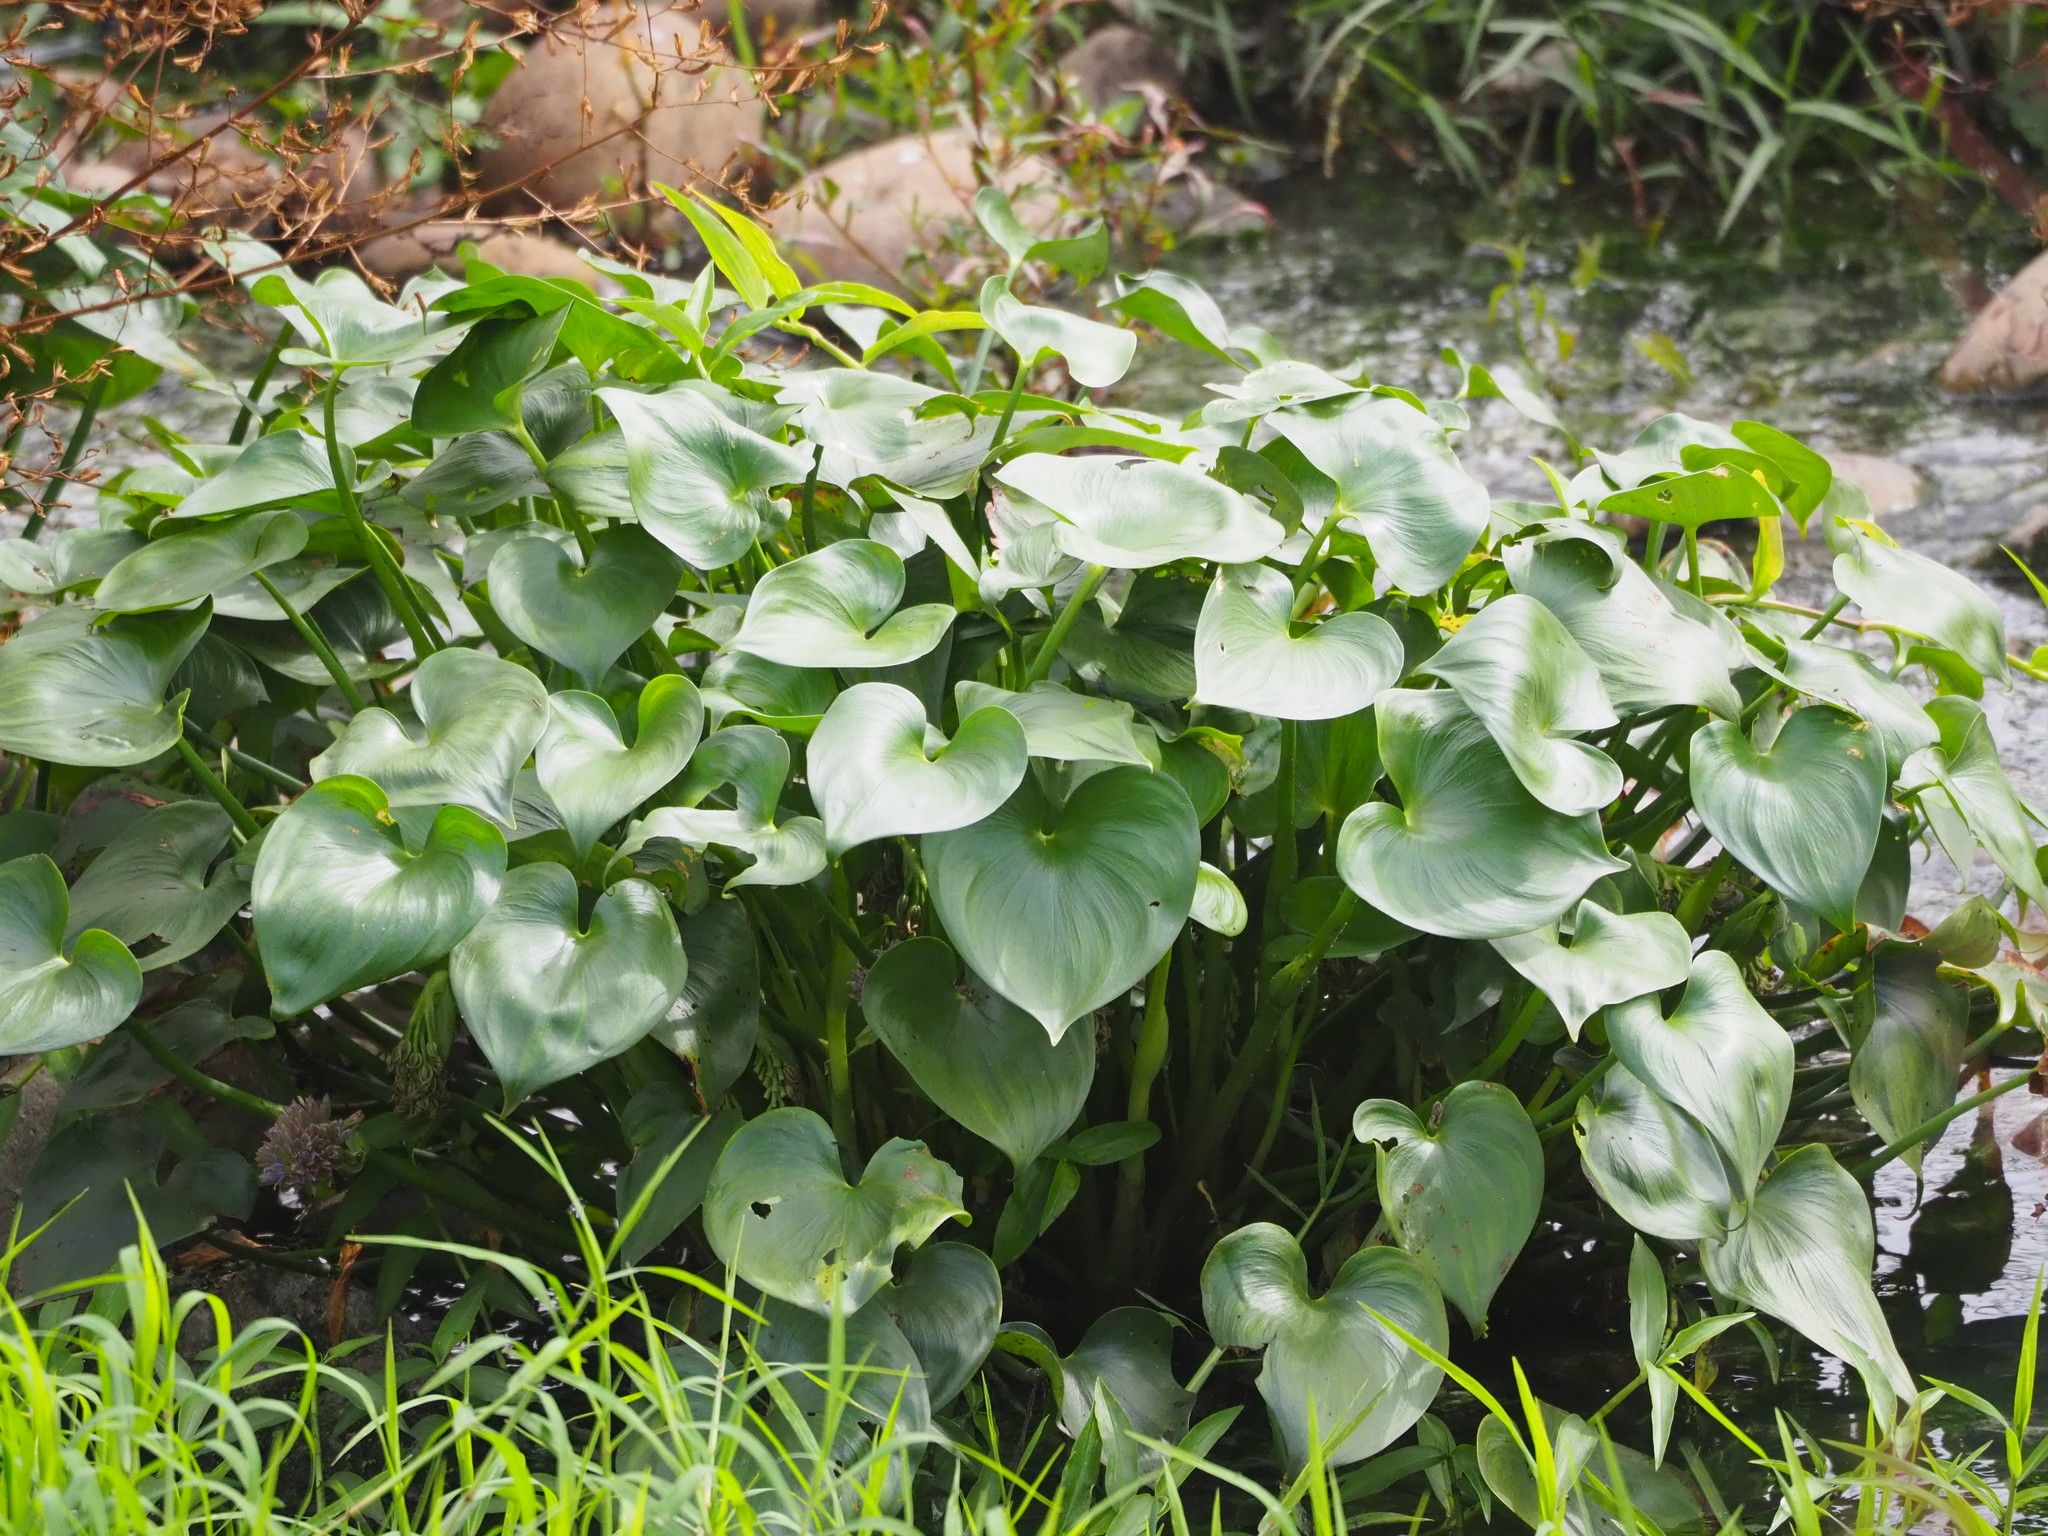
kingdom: Plantae
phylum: Tracheophyta
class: Liliopsida
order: Commelinales
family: Pontederiaceae
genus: Pontederia
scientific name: Pontederia vaginalis
